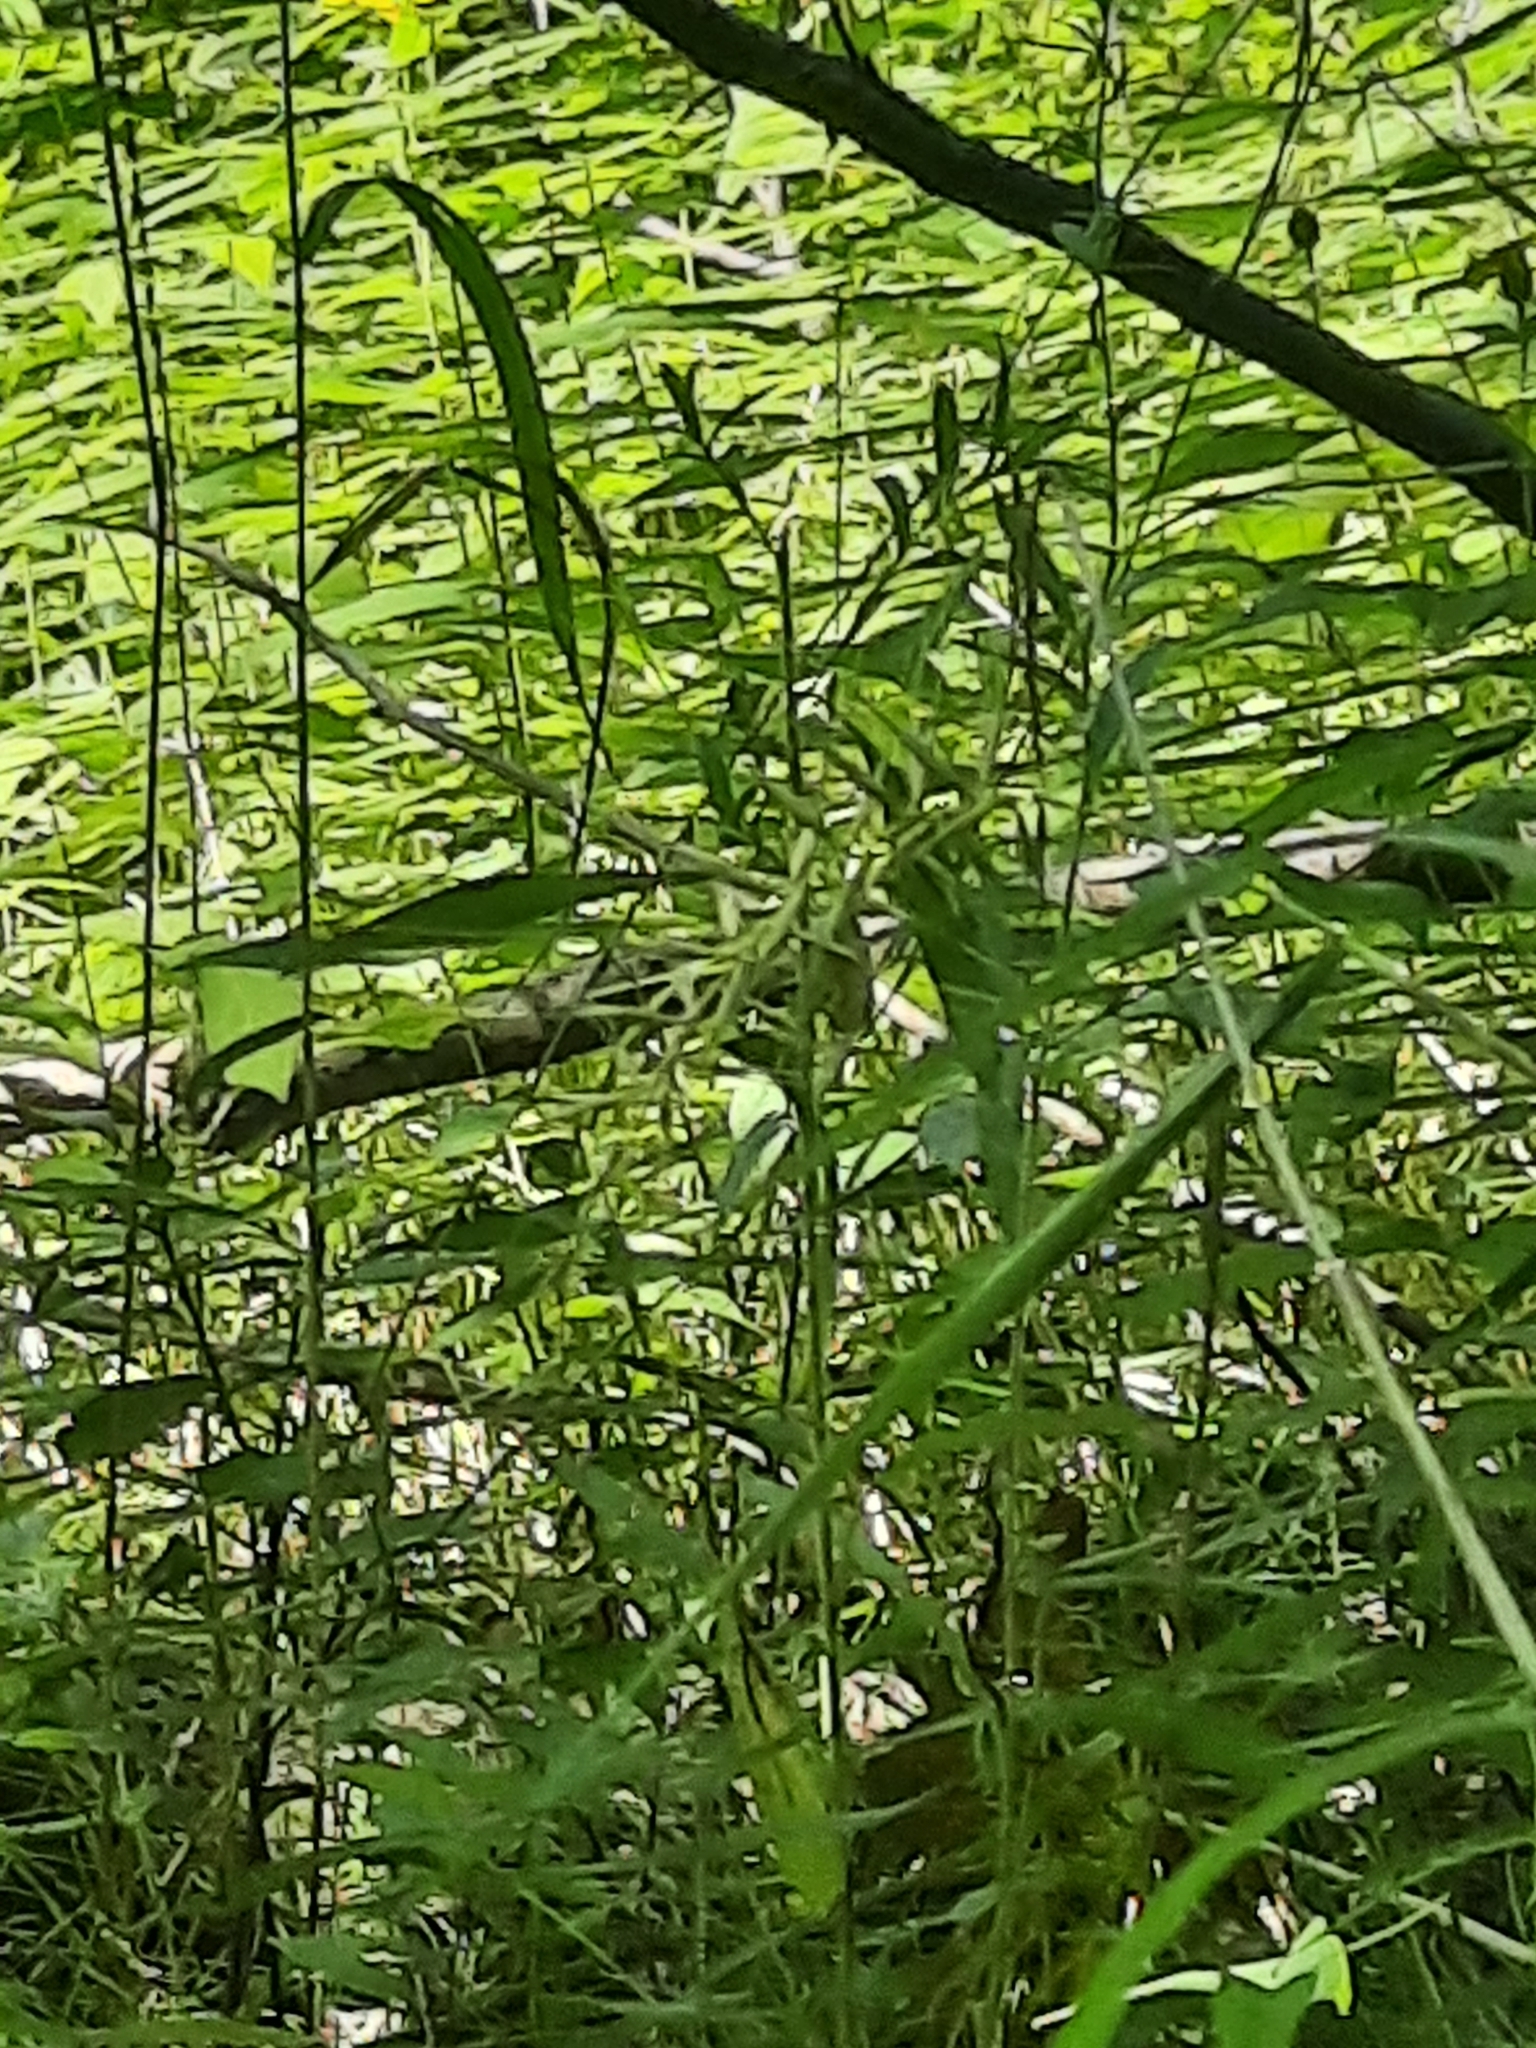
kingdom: Plantae
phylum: Tracheophyta
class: Liliopsida
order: Poales
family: Poaceae
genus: Elymus
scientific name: Elymus hystrix
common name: Bottlebrush grass
